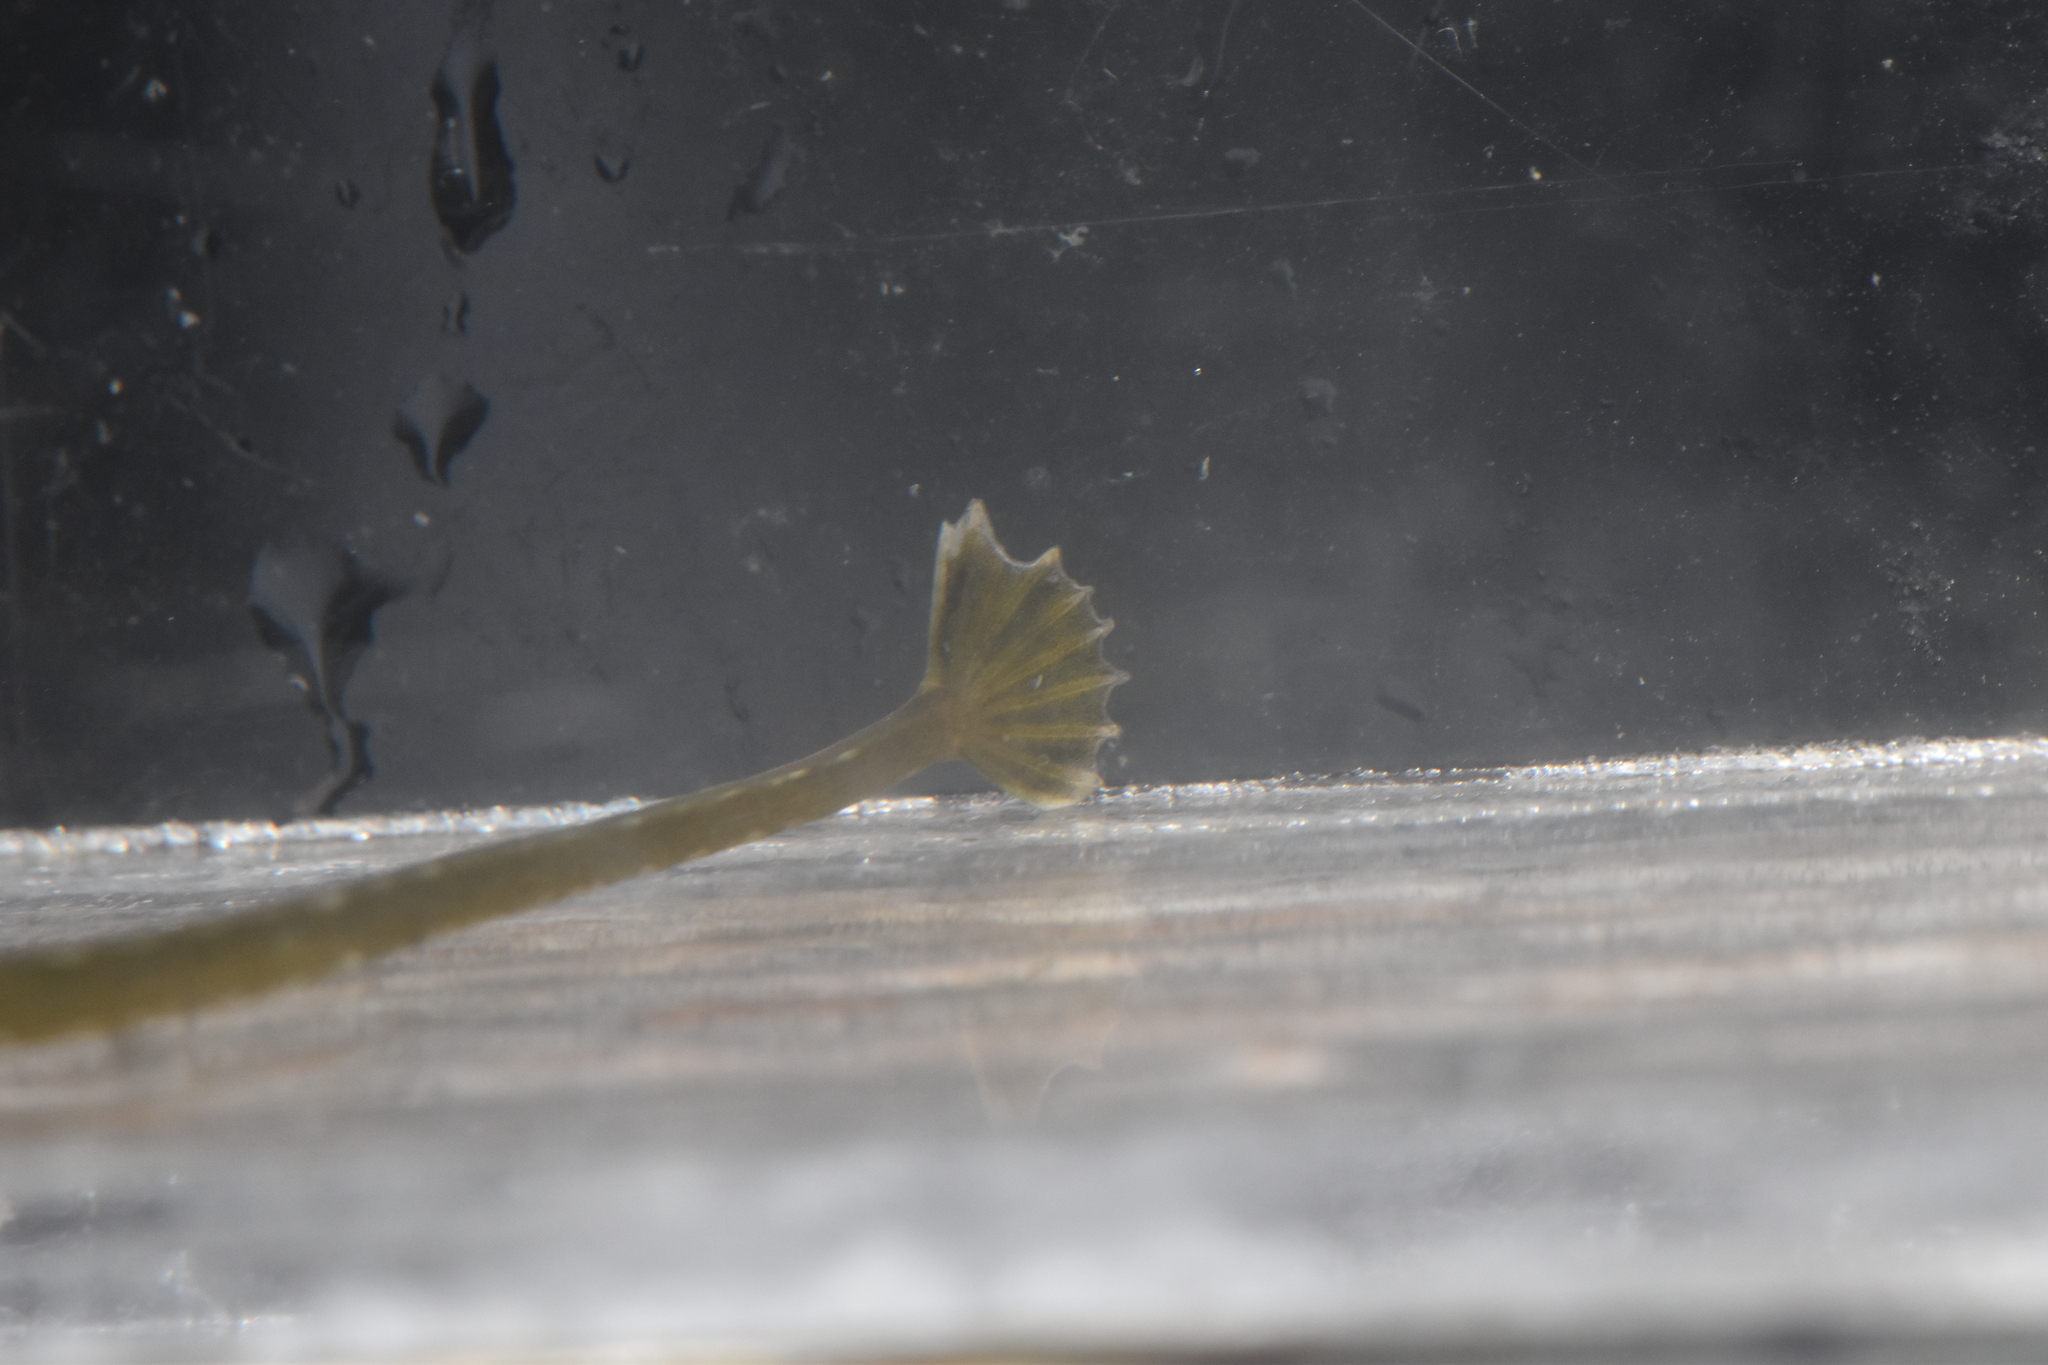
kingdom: Animalia
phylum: Chordata
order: Syngnathiformes
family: Syngnathidae
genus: Syngnathus
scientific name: Syngnathus californiensis
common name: Great pipefish
